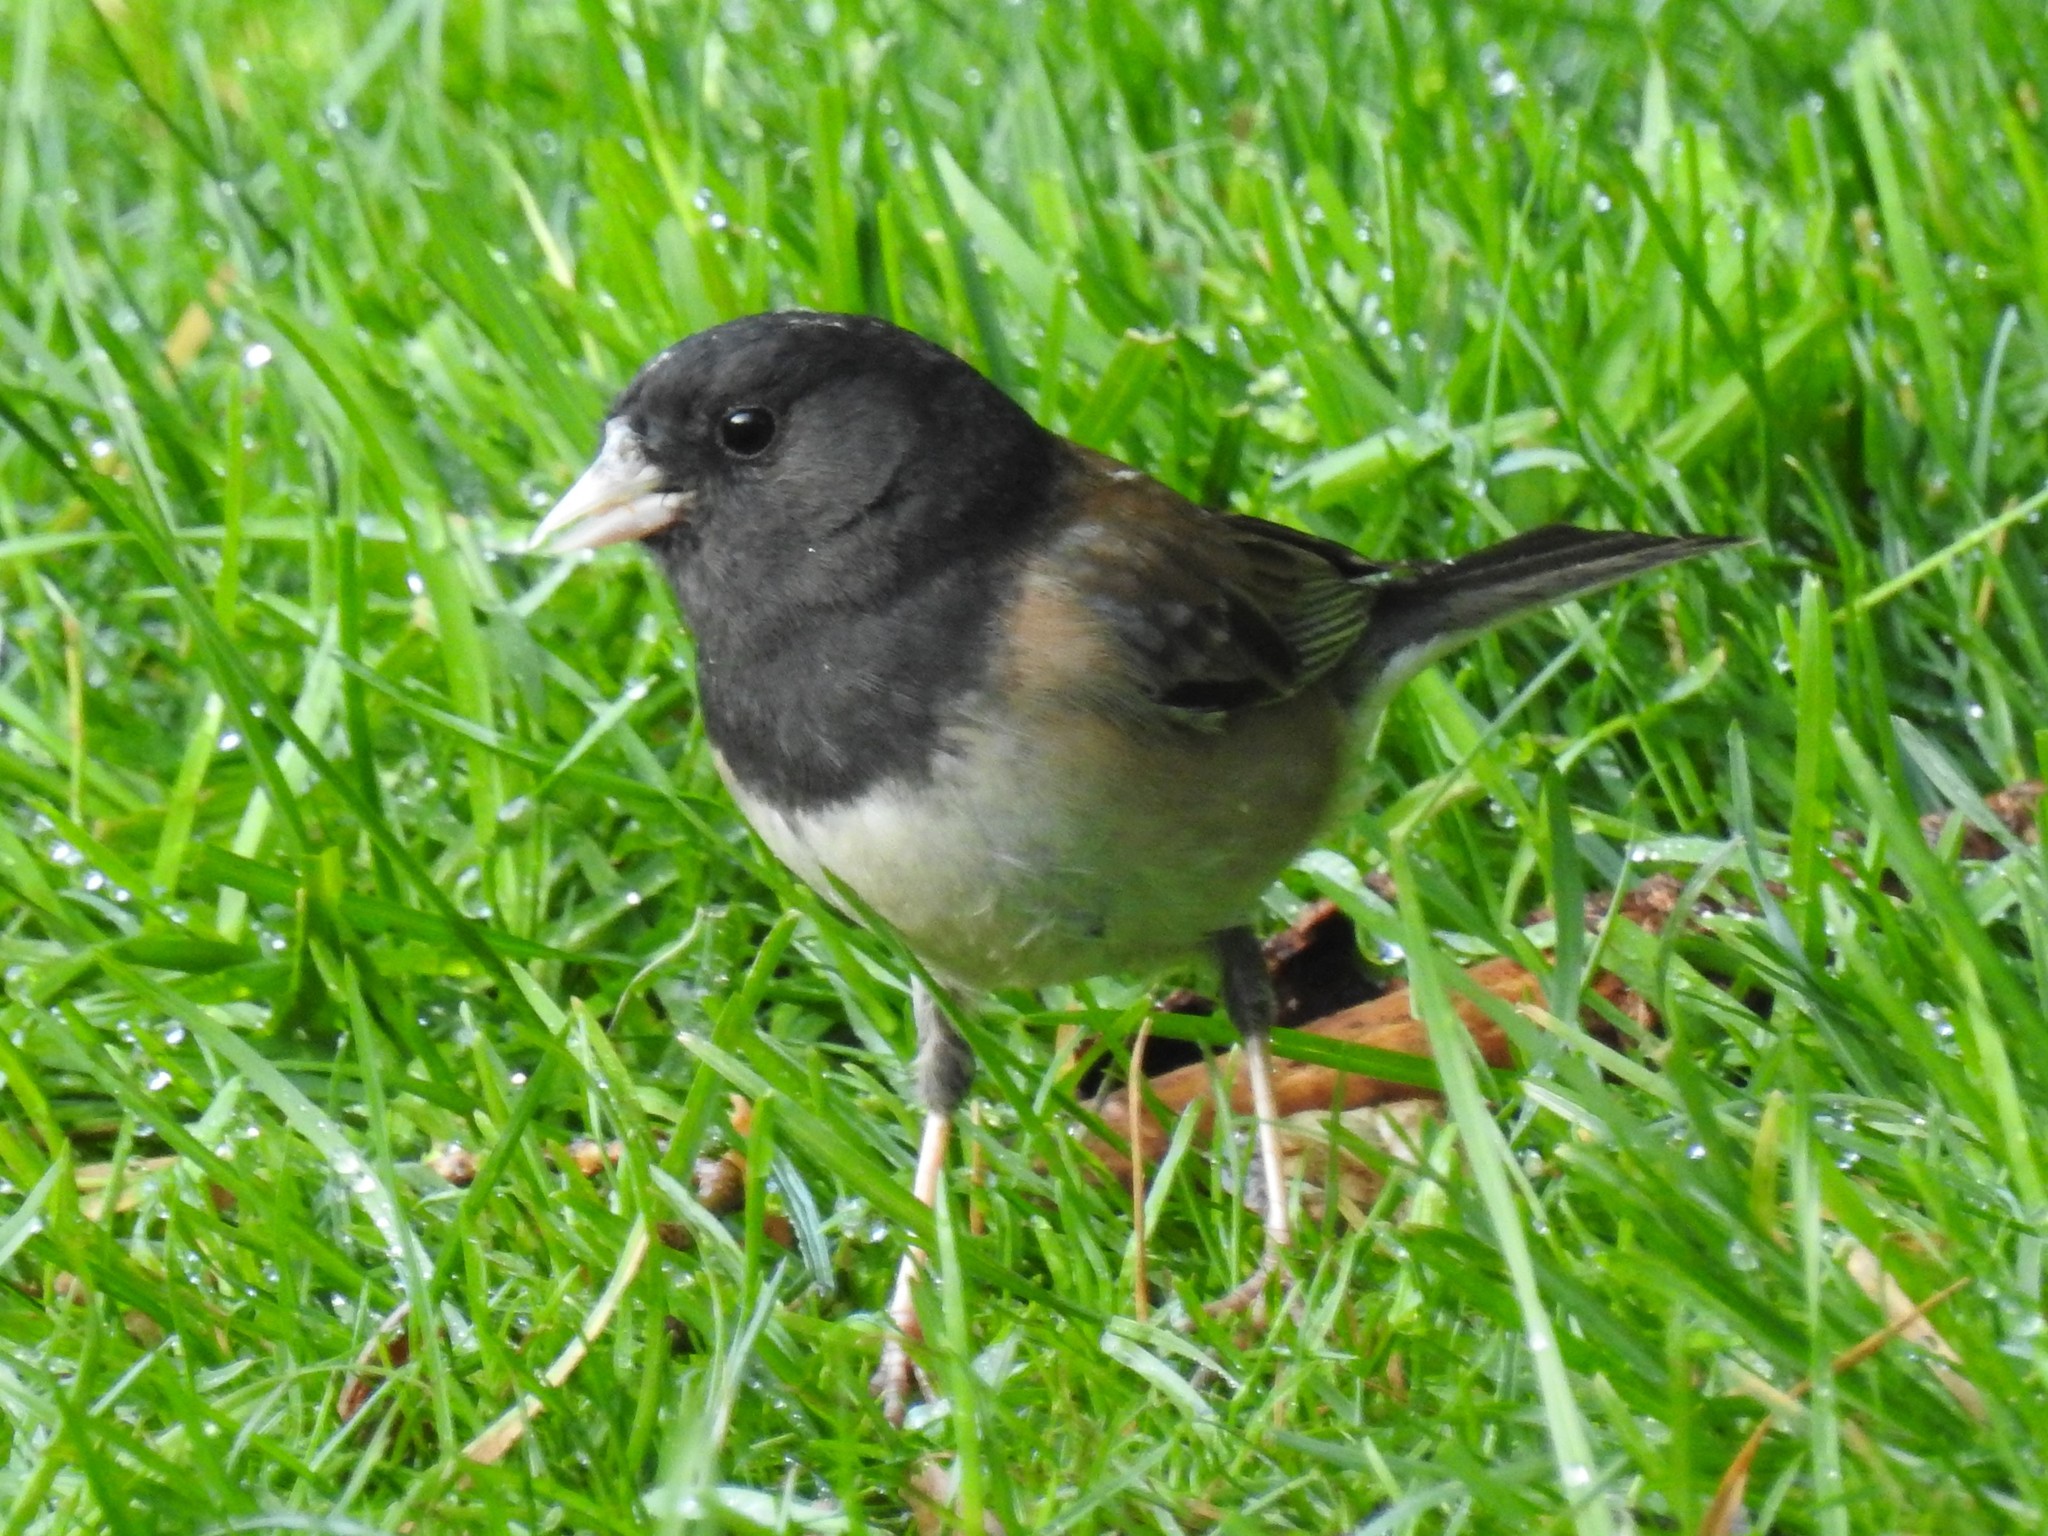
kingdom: Animalia
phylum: Chordata
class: Aves
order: Passeriformes
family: Passerellidae
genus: Junco
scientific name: Junco hyemalis
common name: Dark-eyed junco
